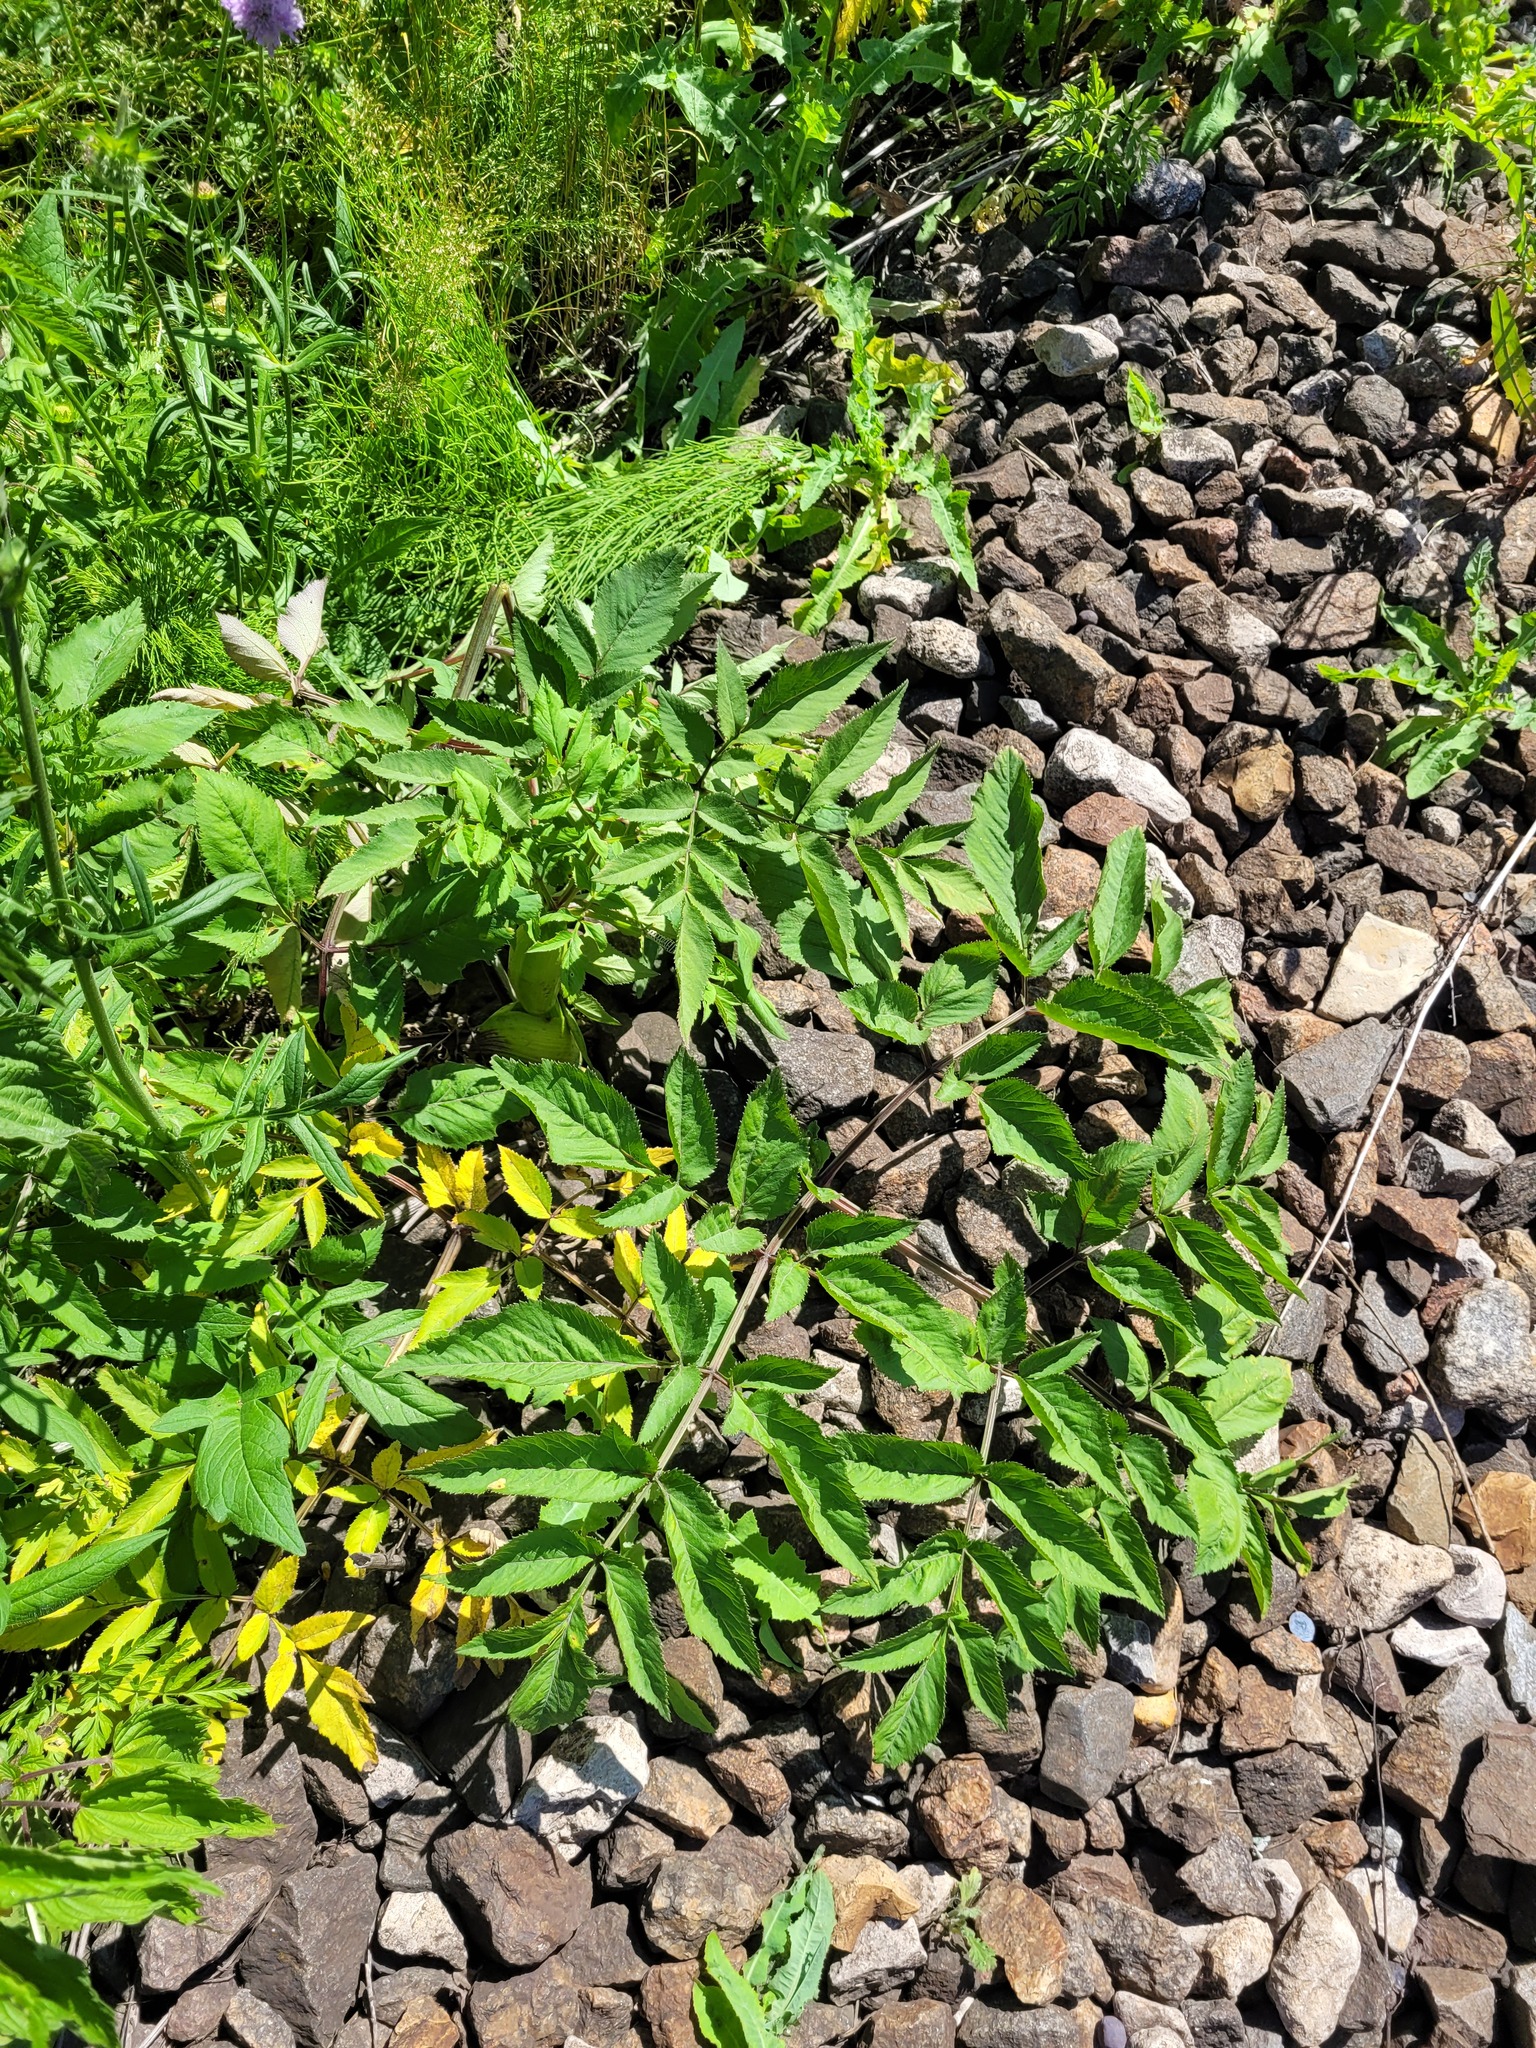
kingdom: Plantae
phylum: Tracheophyta
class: Magnoliopsida
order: Apiales
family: Apiaceae
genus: Angelica
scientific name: Angelica sylvestris
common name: Wild angelica
